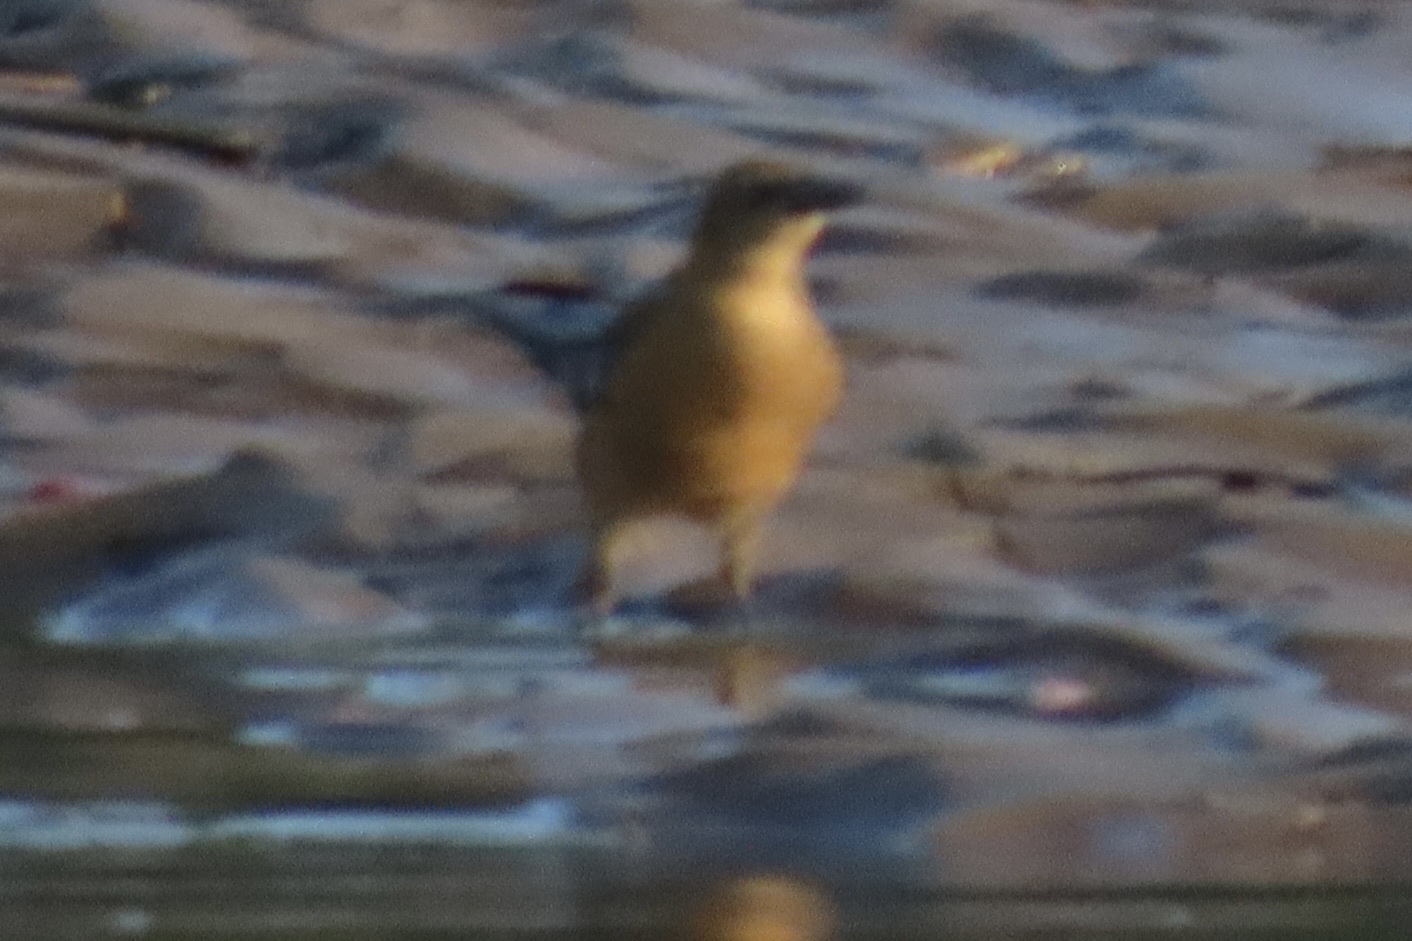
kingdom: Animalia
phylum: Chordata
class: Aves
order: Passeriformes
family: Icteridae
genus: Quiscalus
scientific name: Quiscalus mexicanus
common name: Great-tailed grackle
